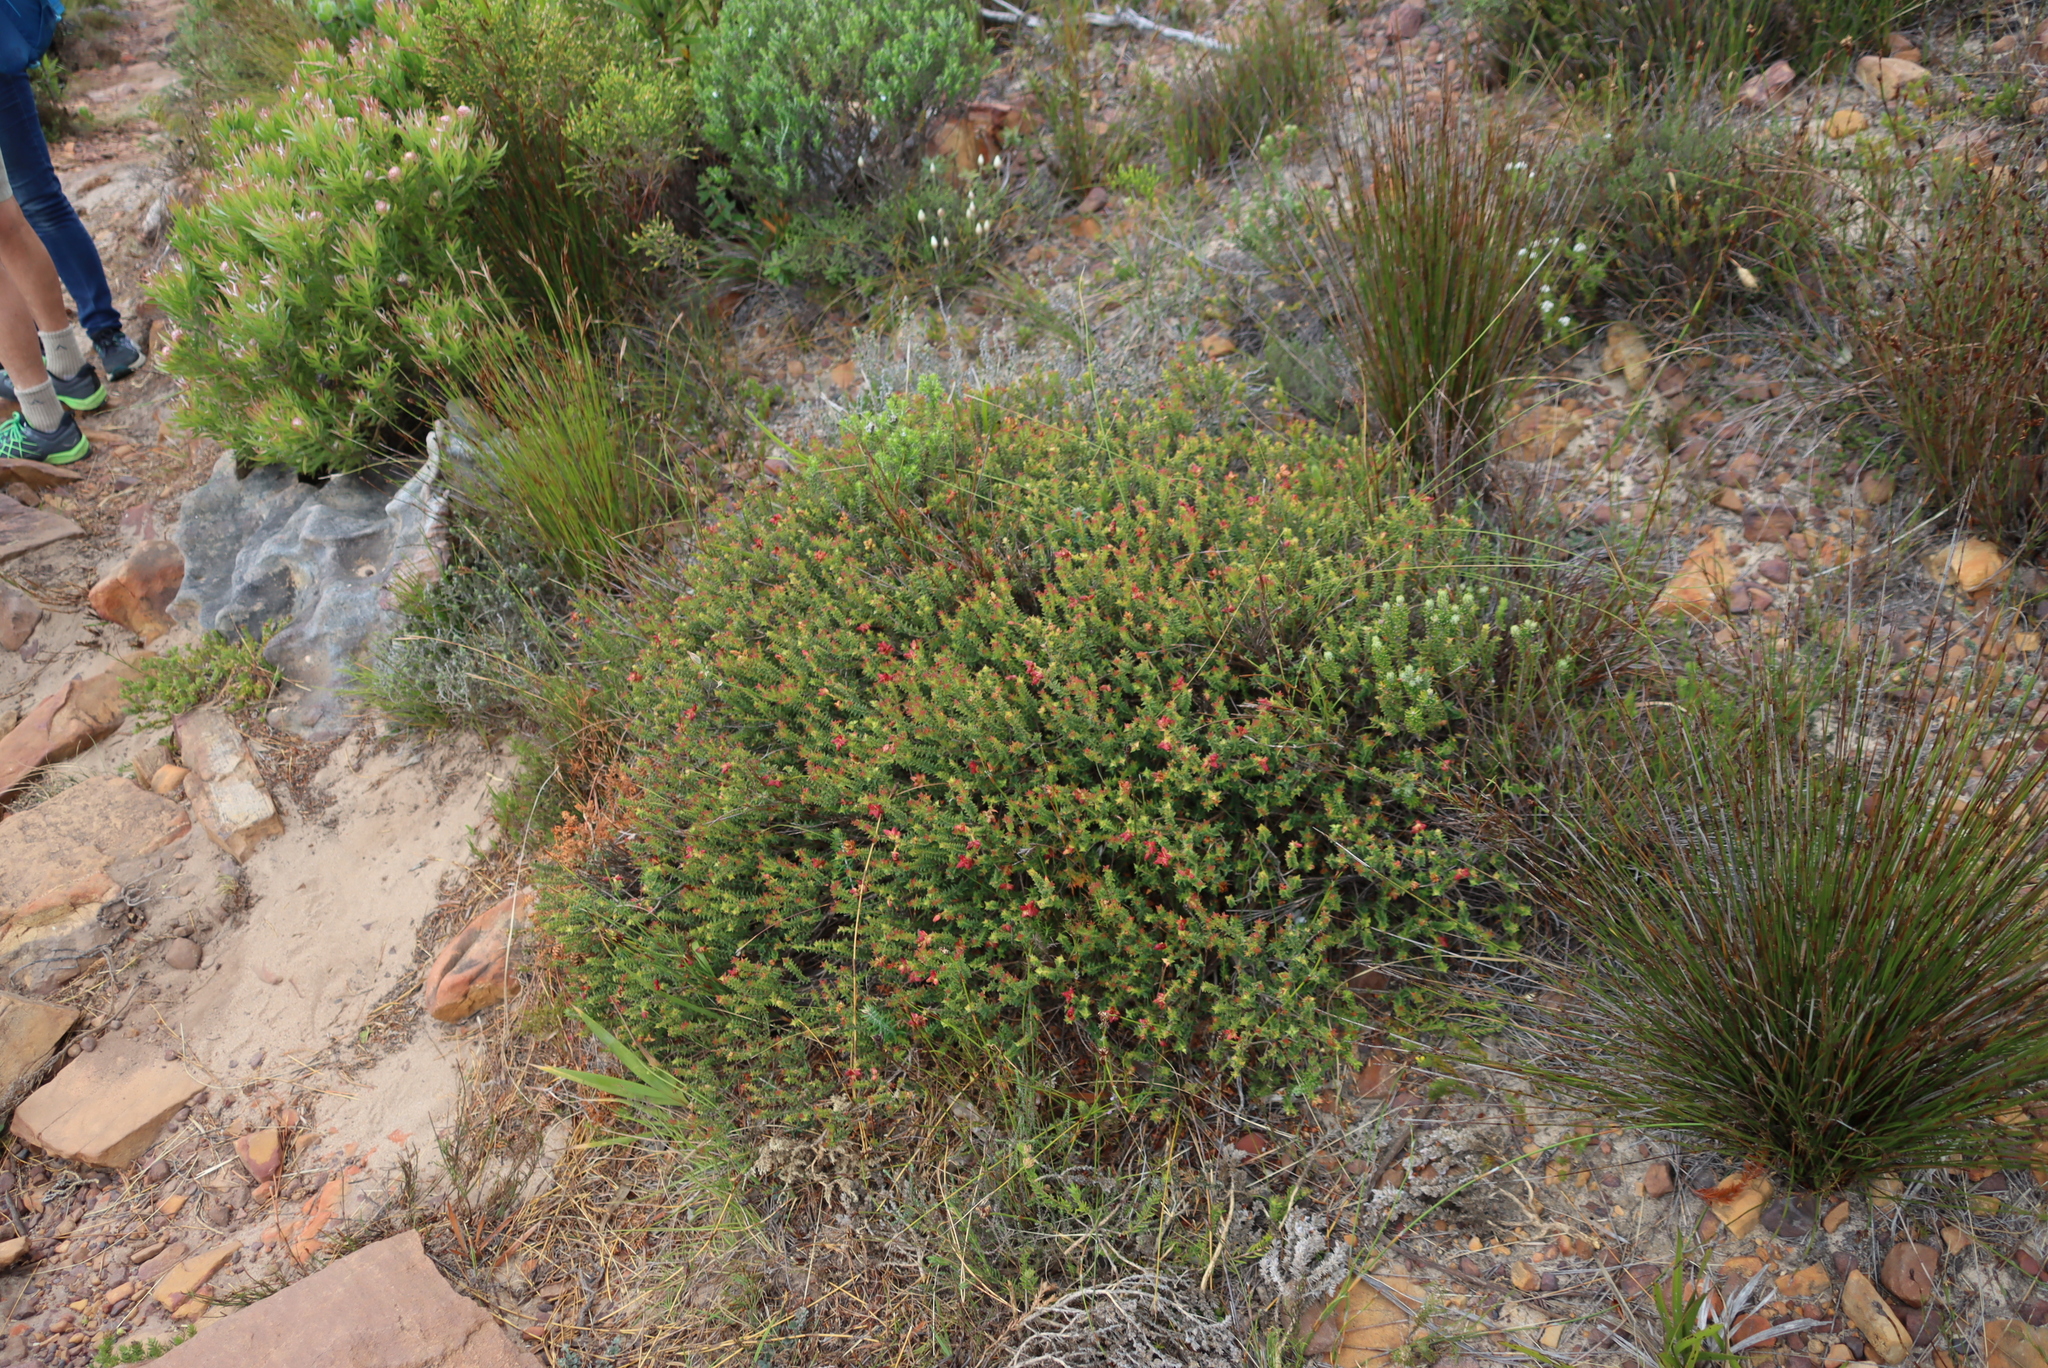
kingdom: Plantae
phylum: Tracheophyta
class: Magnoliopsida
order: Myrtales
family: Penaeaceae
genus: Penaea
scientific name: Penaea mucronata
